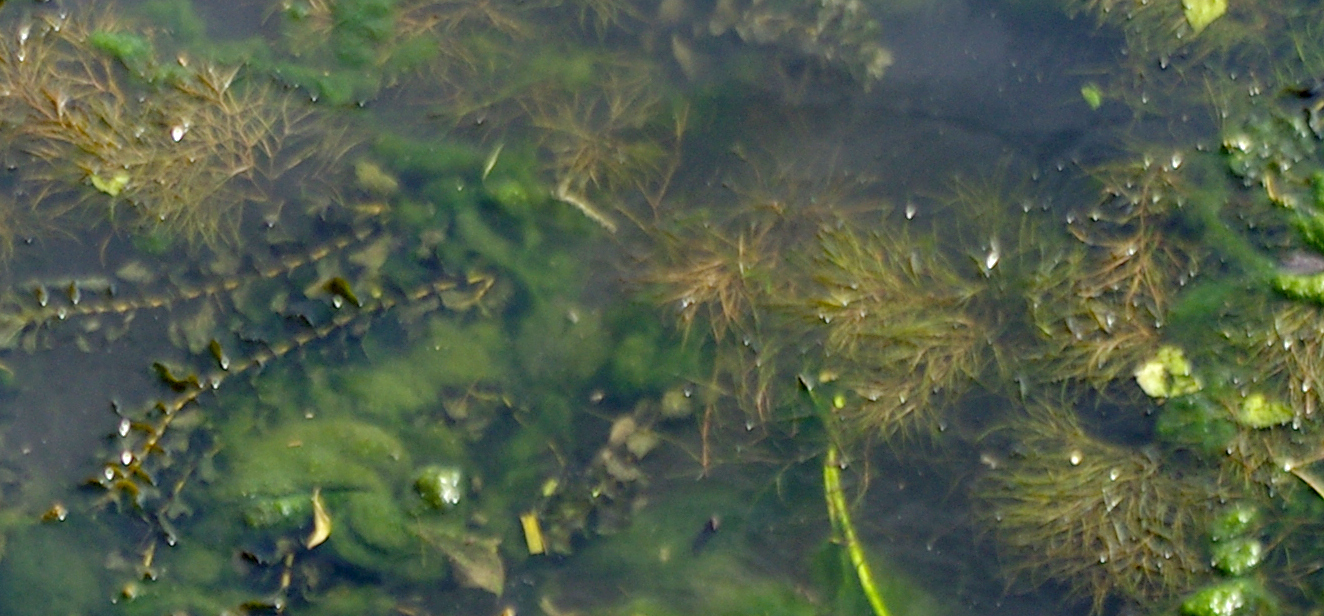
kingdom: Plantae
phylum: Tracheophyta
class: Liliopsida
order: Alismatales
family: Potamogetonaceae
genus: Stuckenia
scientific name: Stuckenia pectinata
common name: Sago pondweed
